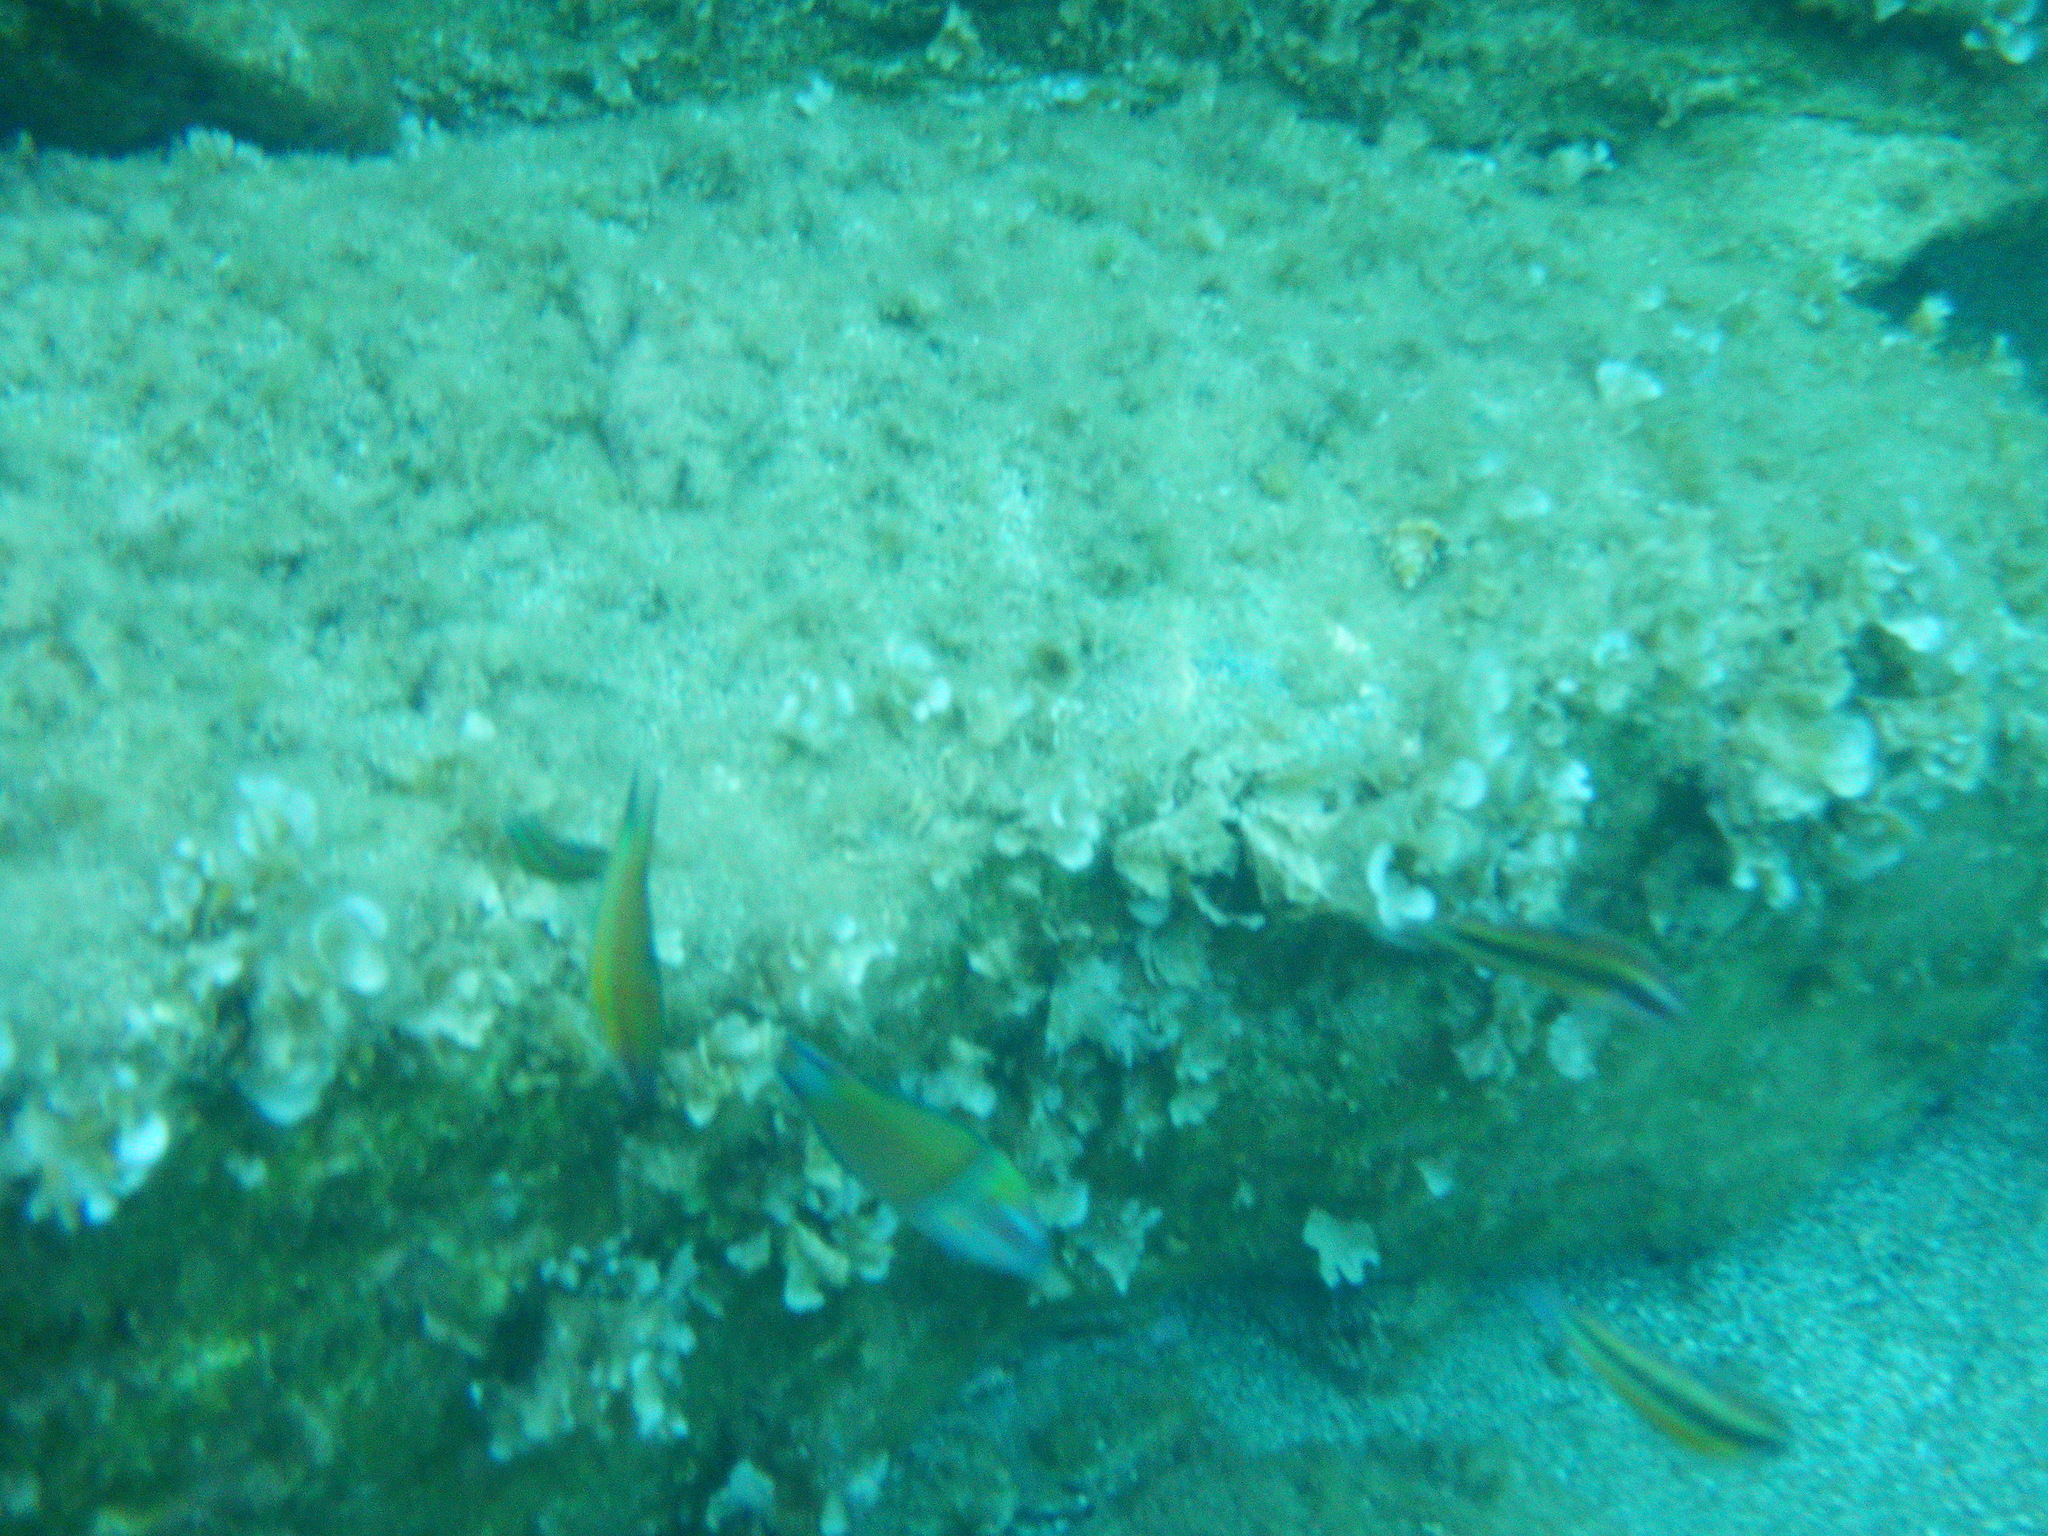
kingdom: Animalia
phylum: Chordata
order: Perciformes
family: Labridae
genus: Thalassoma
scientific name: Thalassoma pavo
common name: Ornate wrasse
